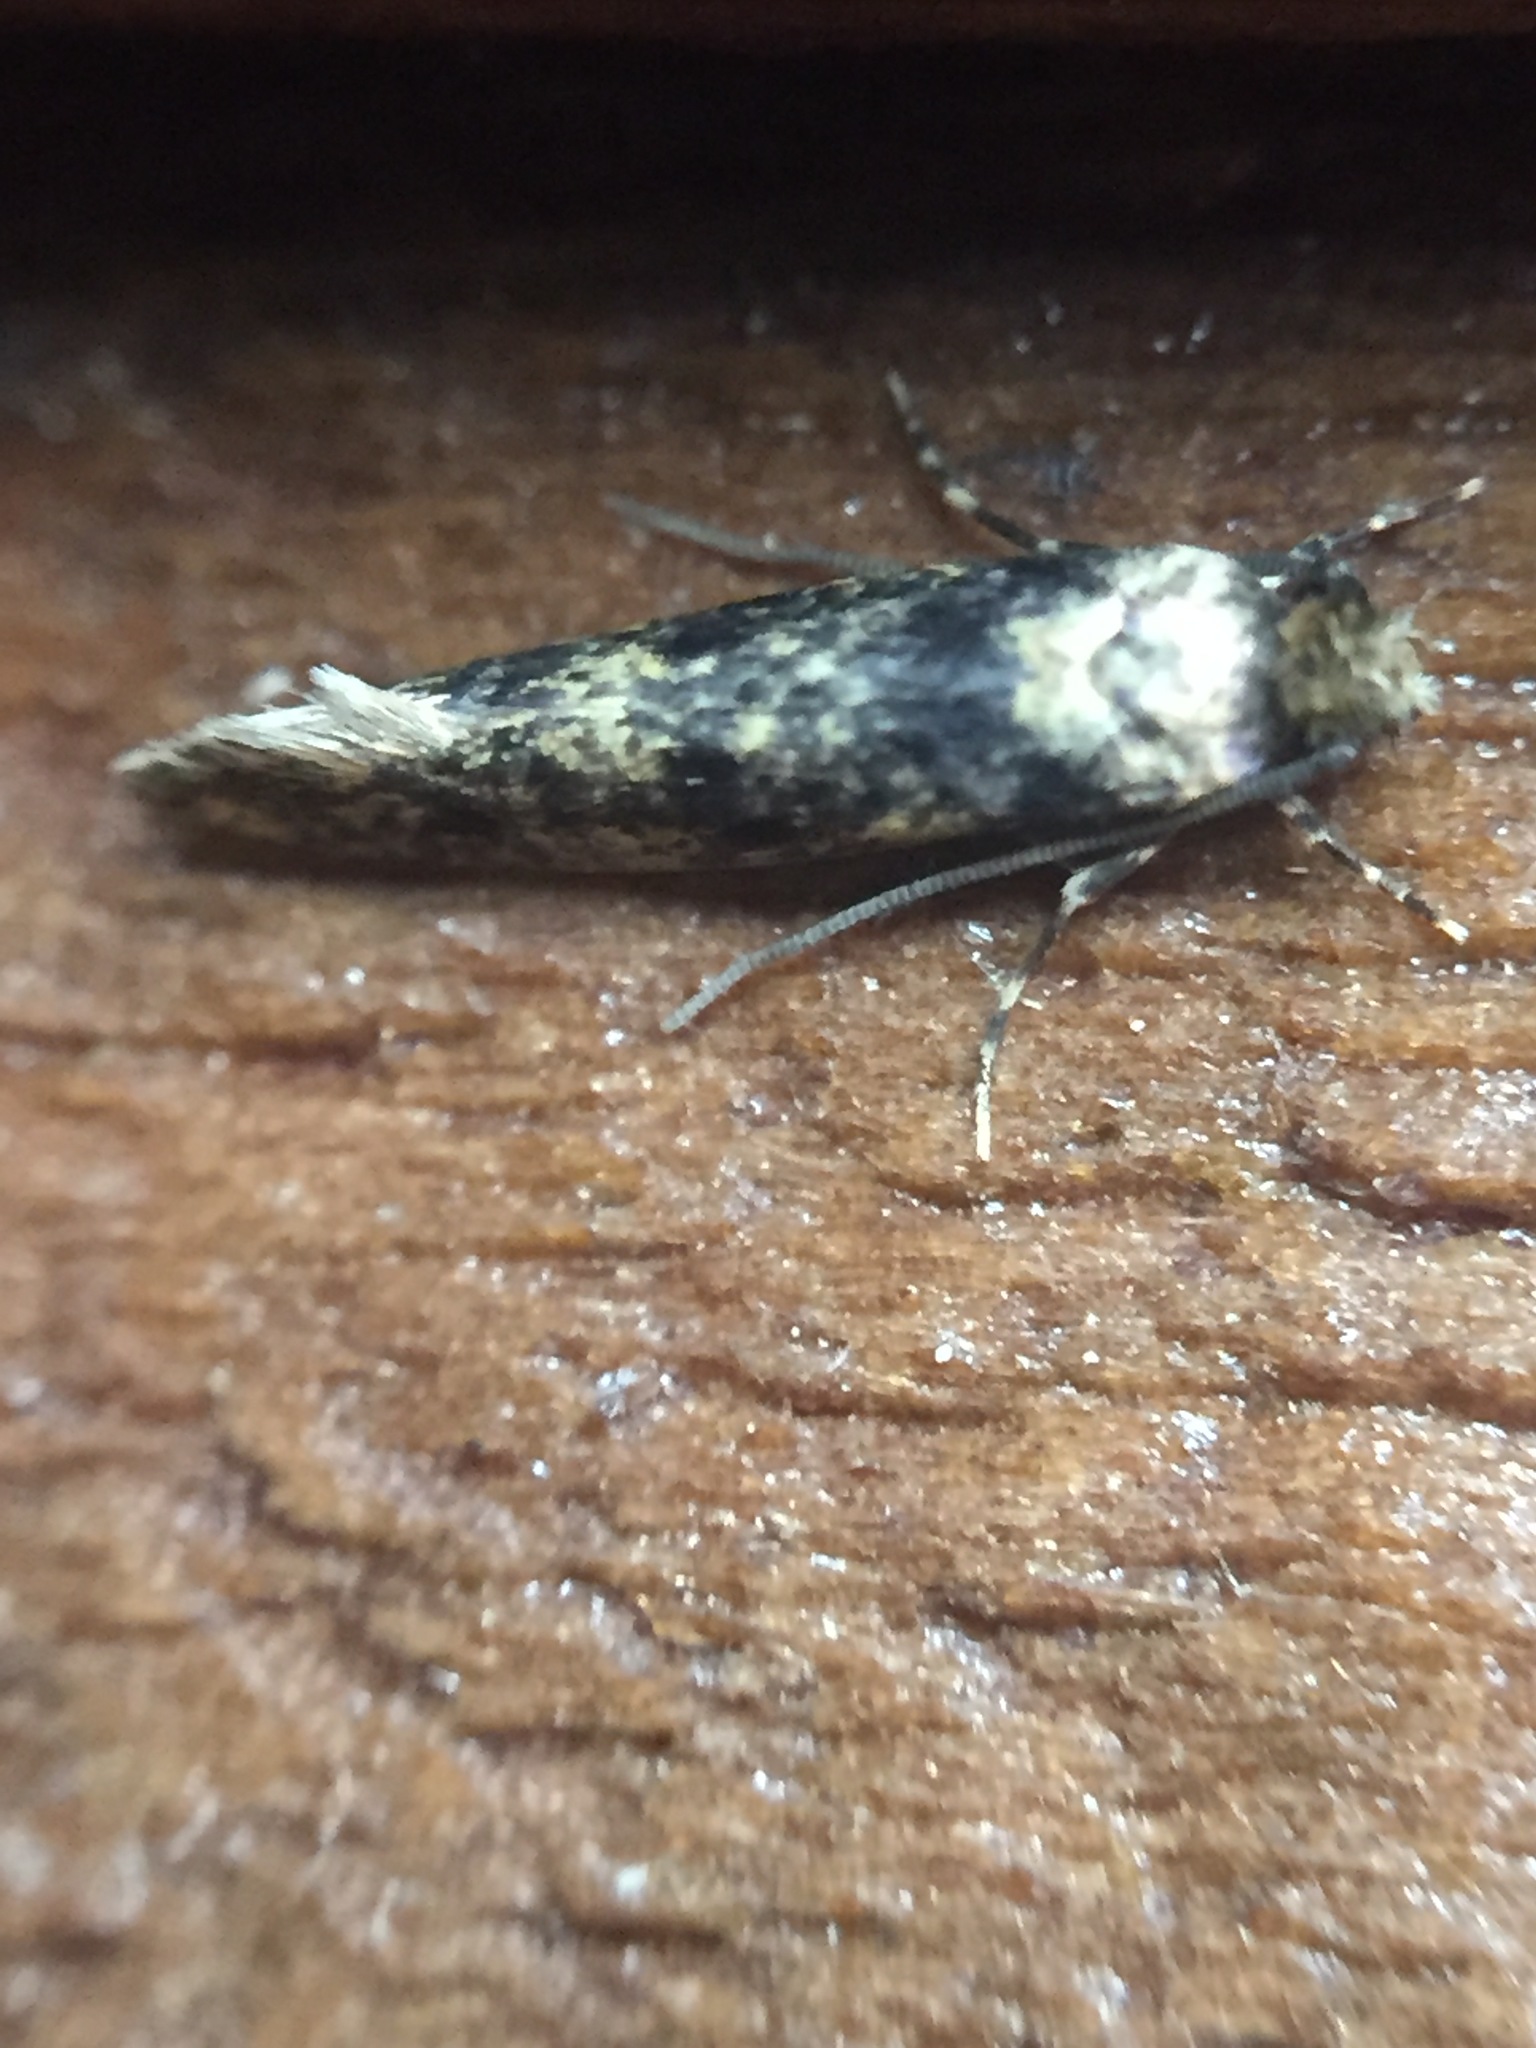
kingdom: Animalia
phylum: Arthropoda
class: Insecta
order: Lepidoptera
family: Tineidae
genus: Niditinea
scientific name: Niditinea fuscella
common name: Brown-dotted clothes moth
